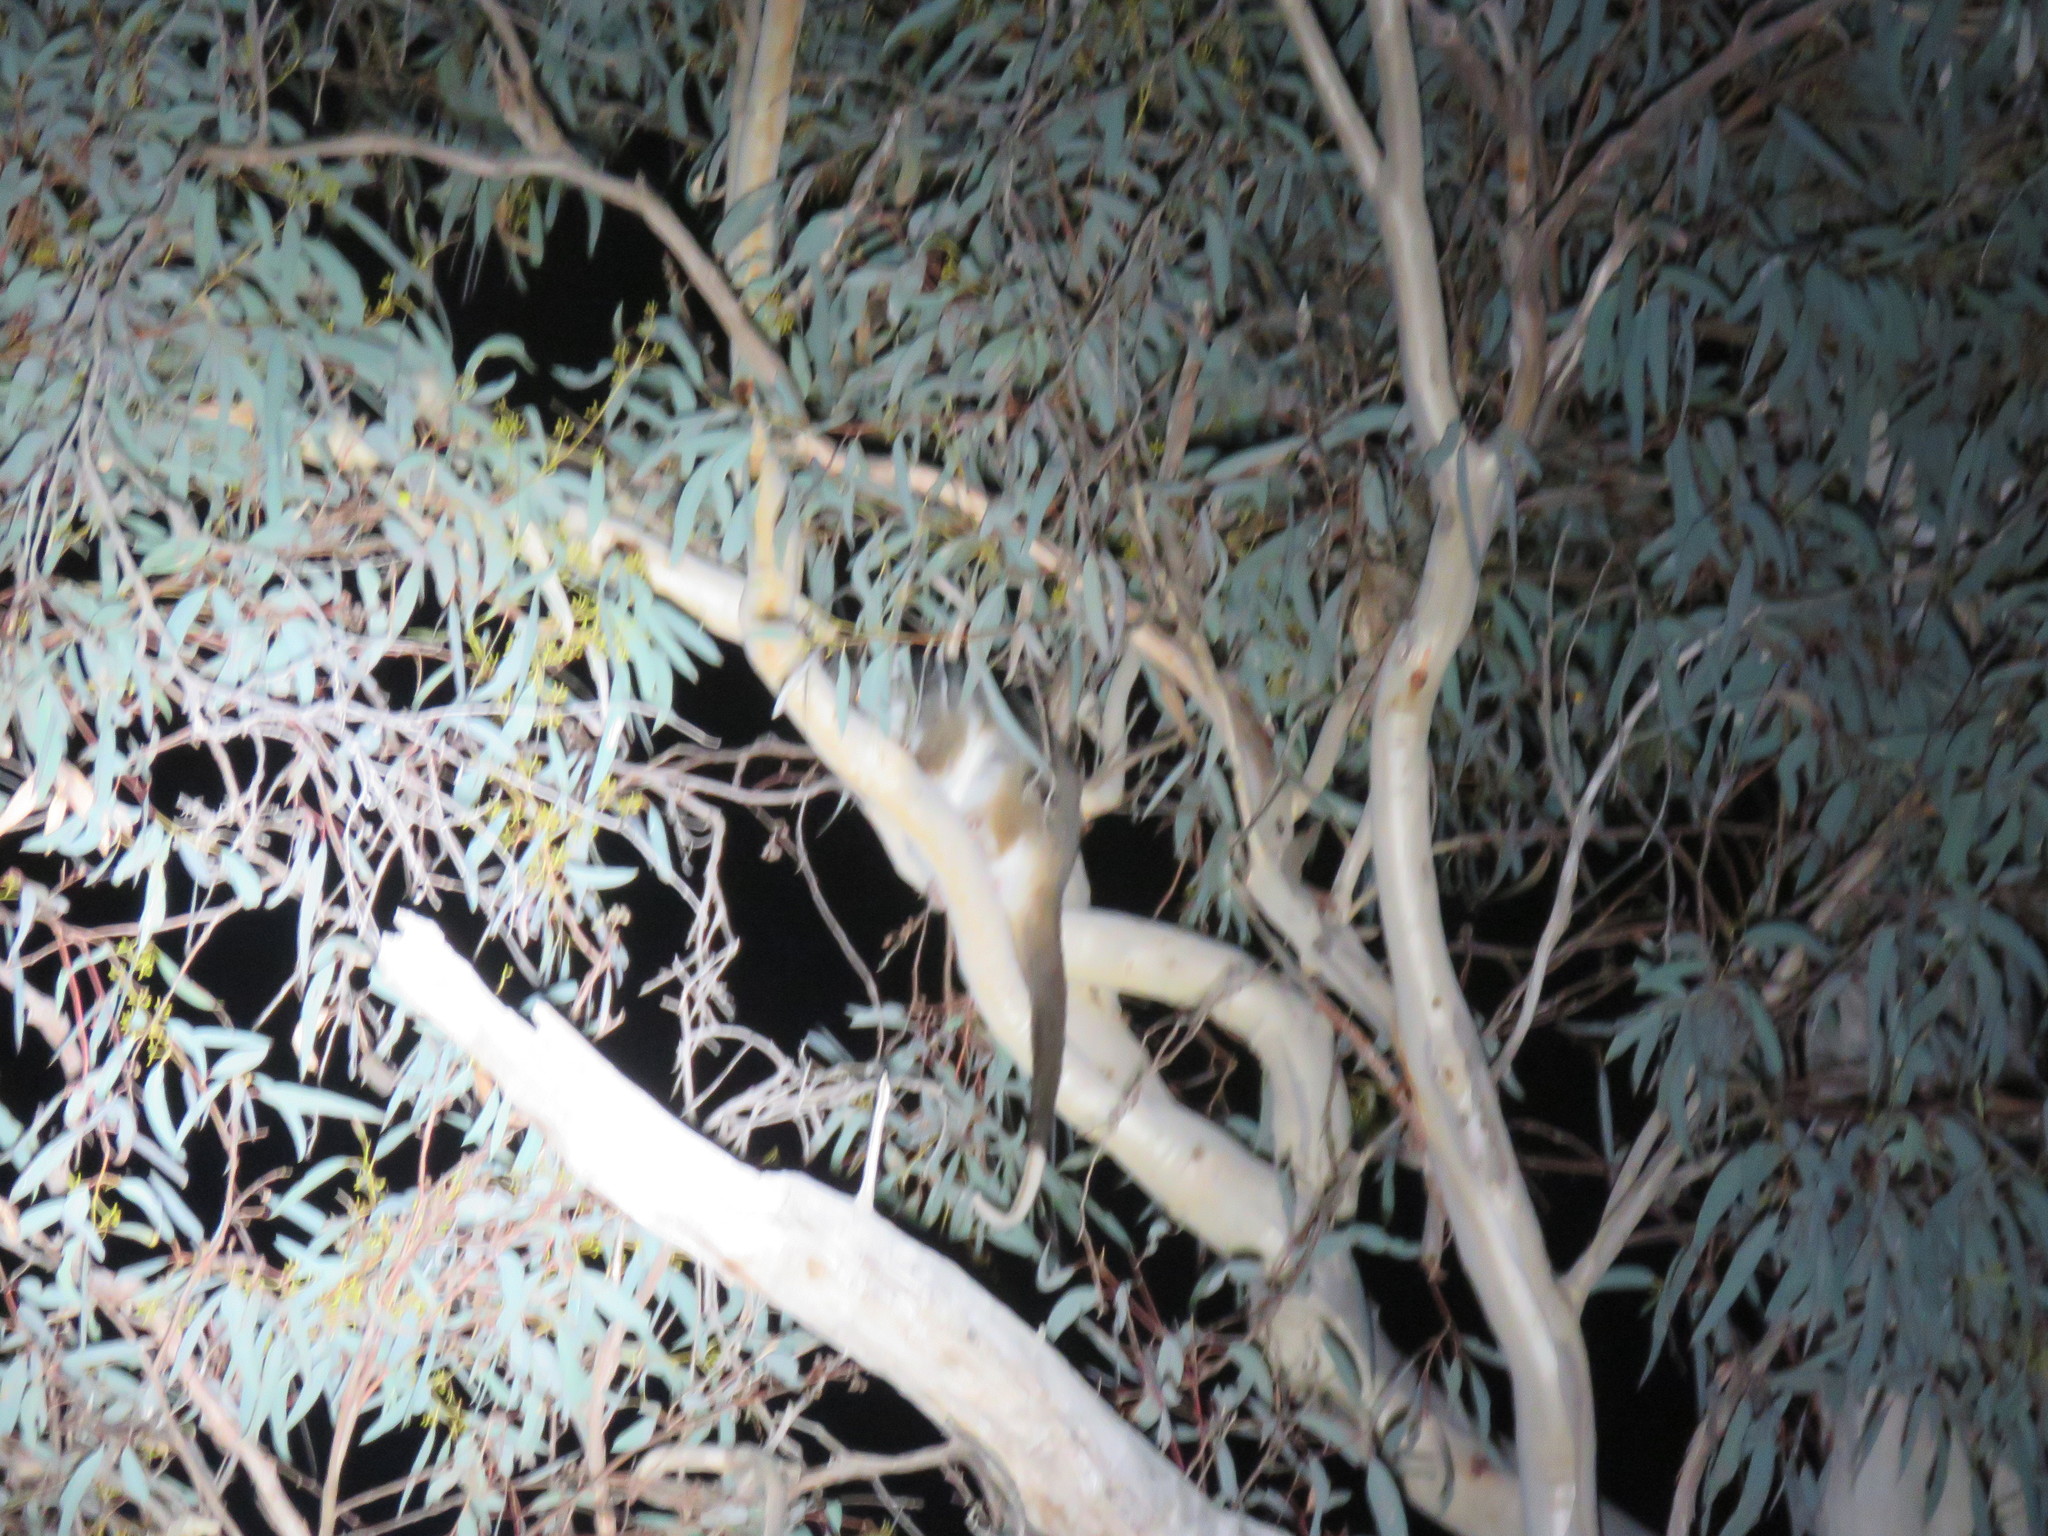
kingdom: Animalia
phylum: Chordata
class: Mammalia
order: Diprotodontia
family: Pseudocheiridae
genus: Pseudocheirus
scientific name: Pseudocheirus peregrinus
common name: Common ringtail possum
